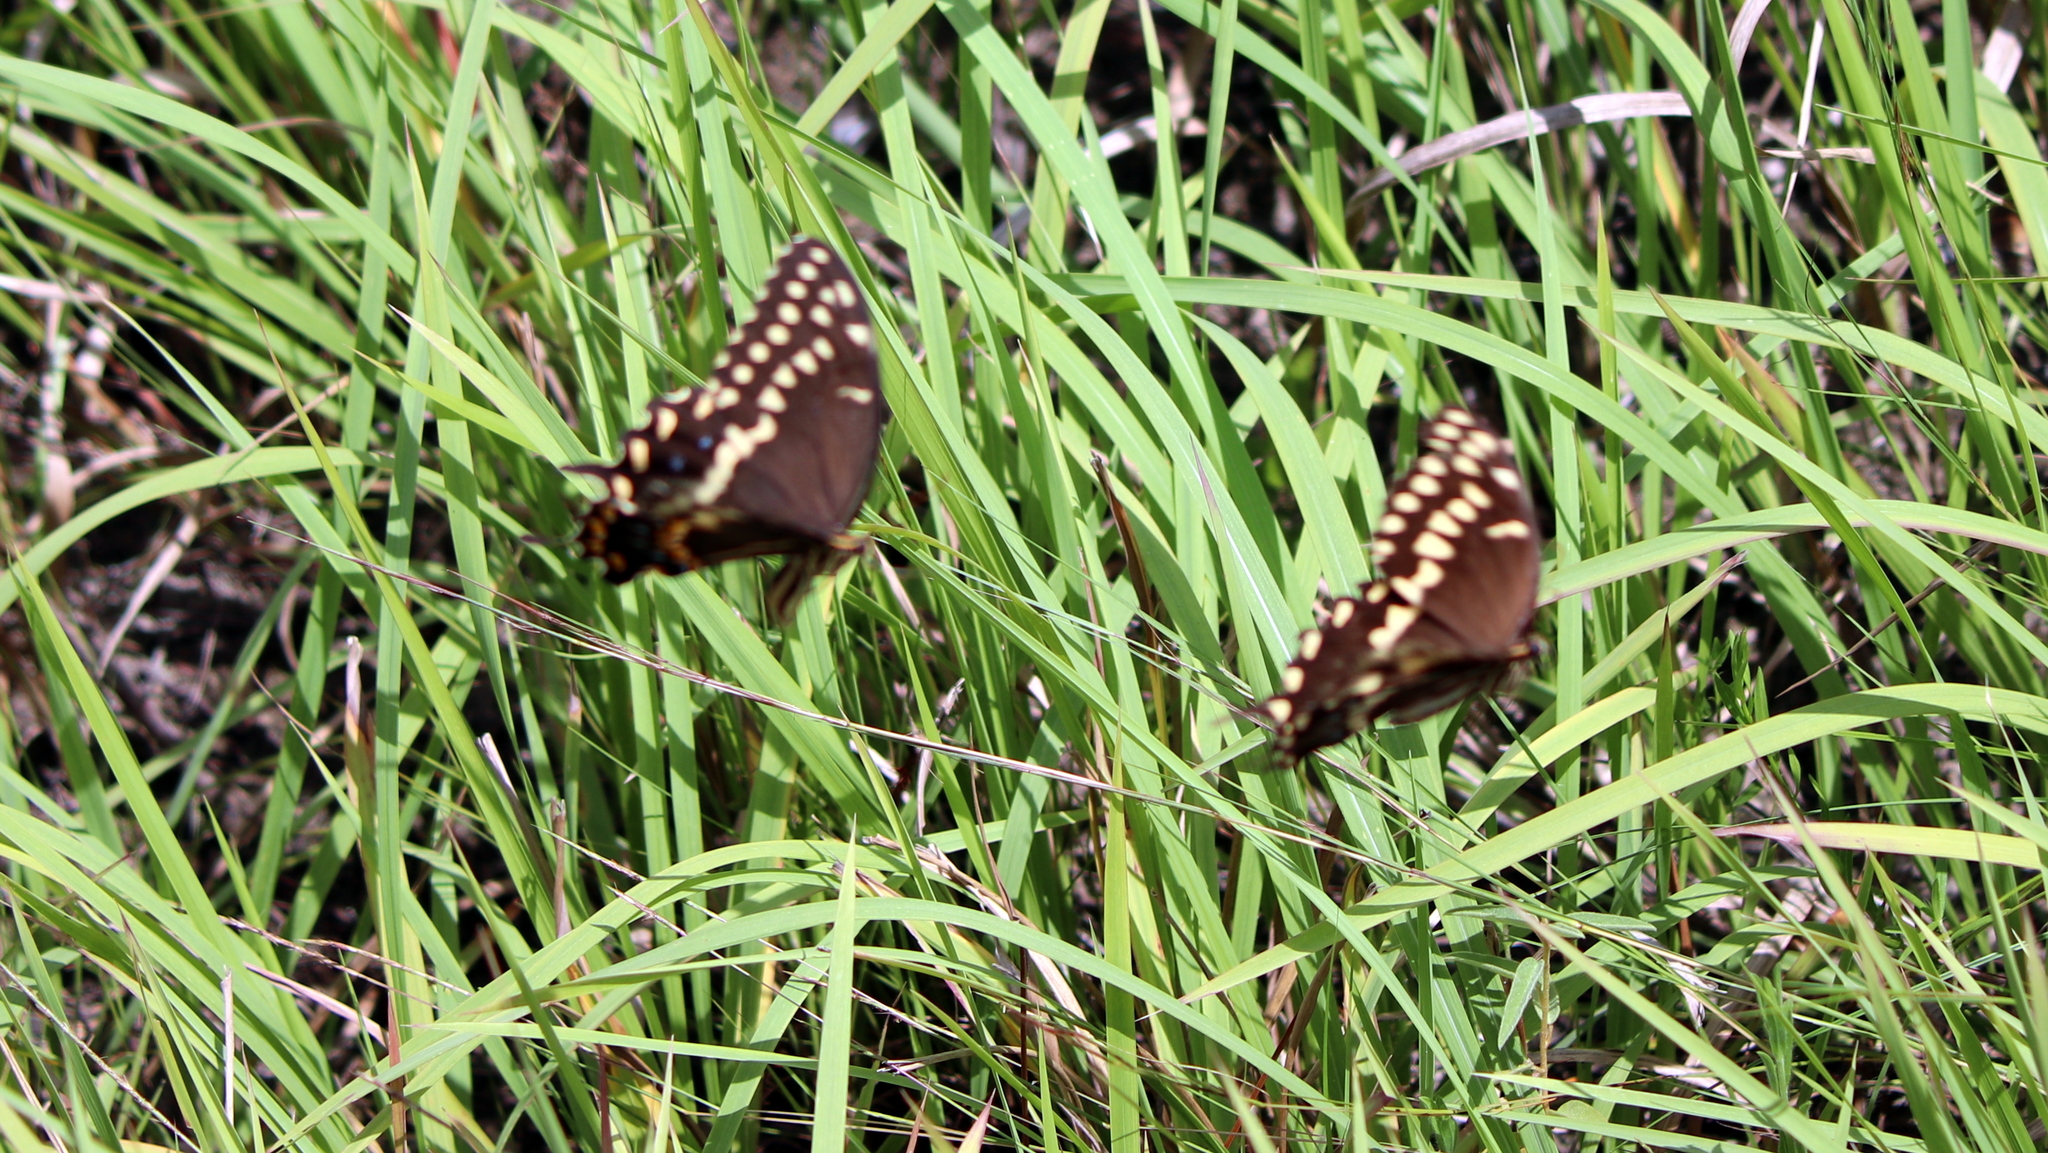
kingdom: Animalia
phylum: Arthropoda
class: Insecta
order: Lepidoptera
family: Papilionidae
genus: Papilio
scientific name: Papilio palamedes
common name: Palamedes swallowtail
